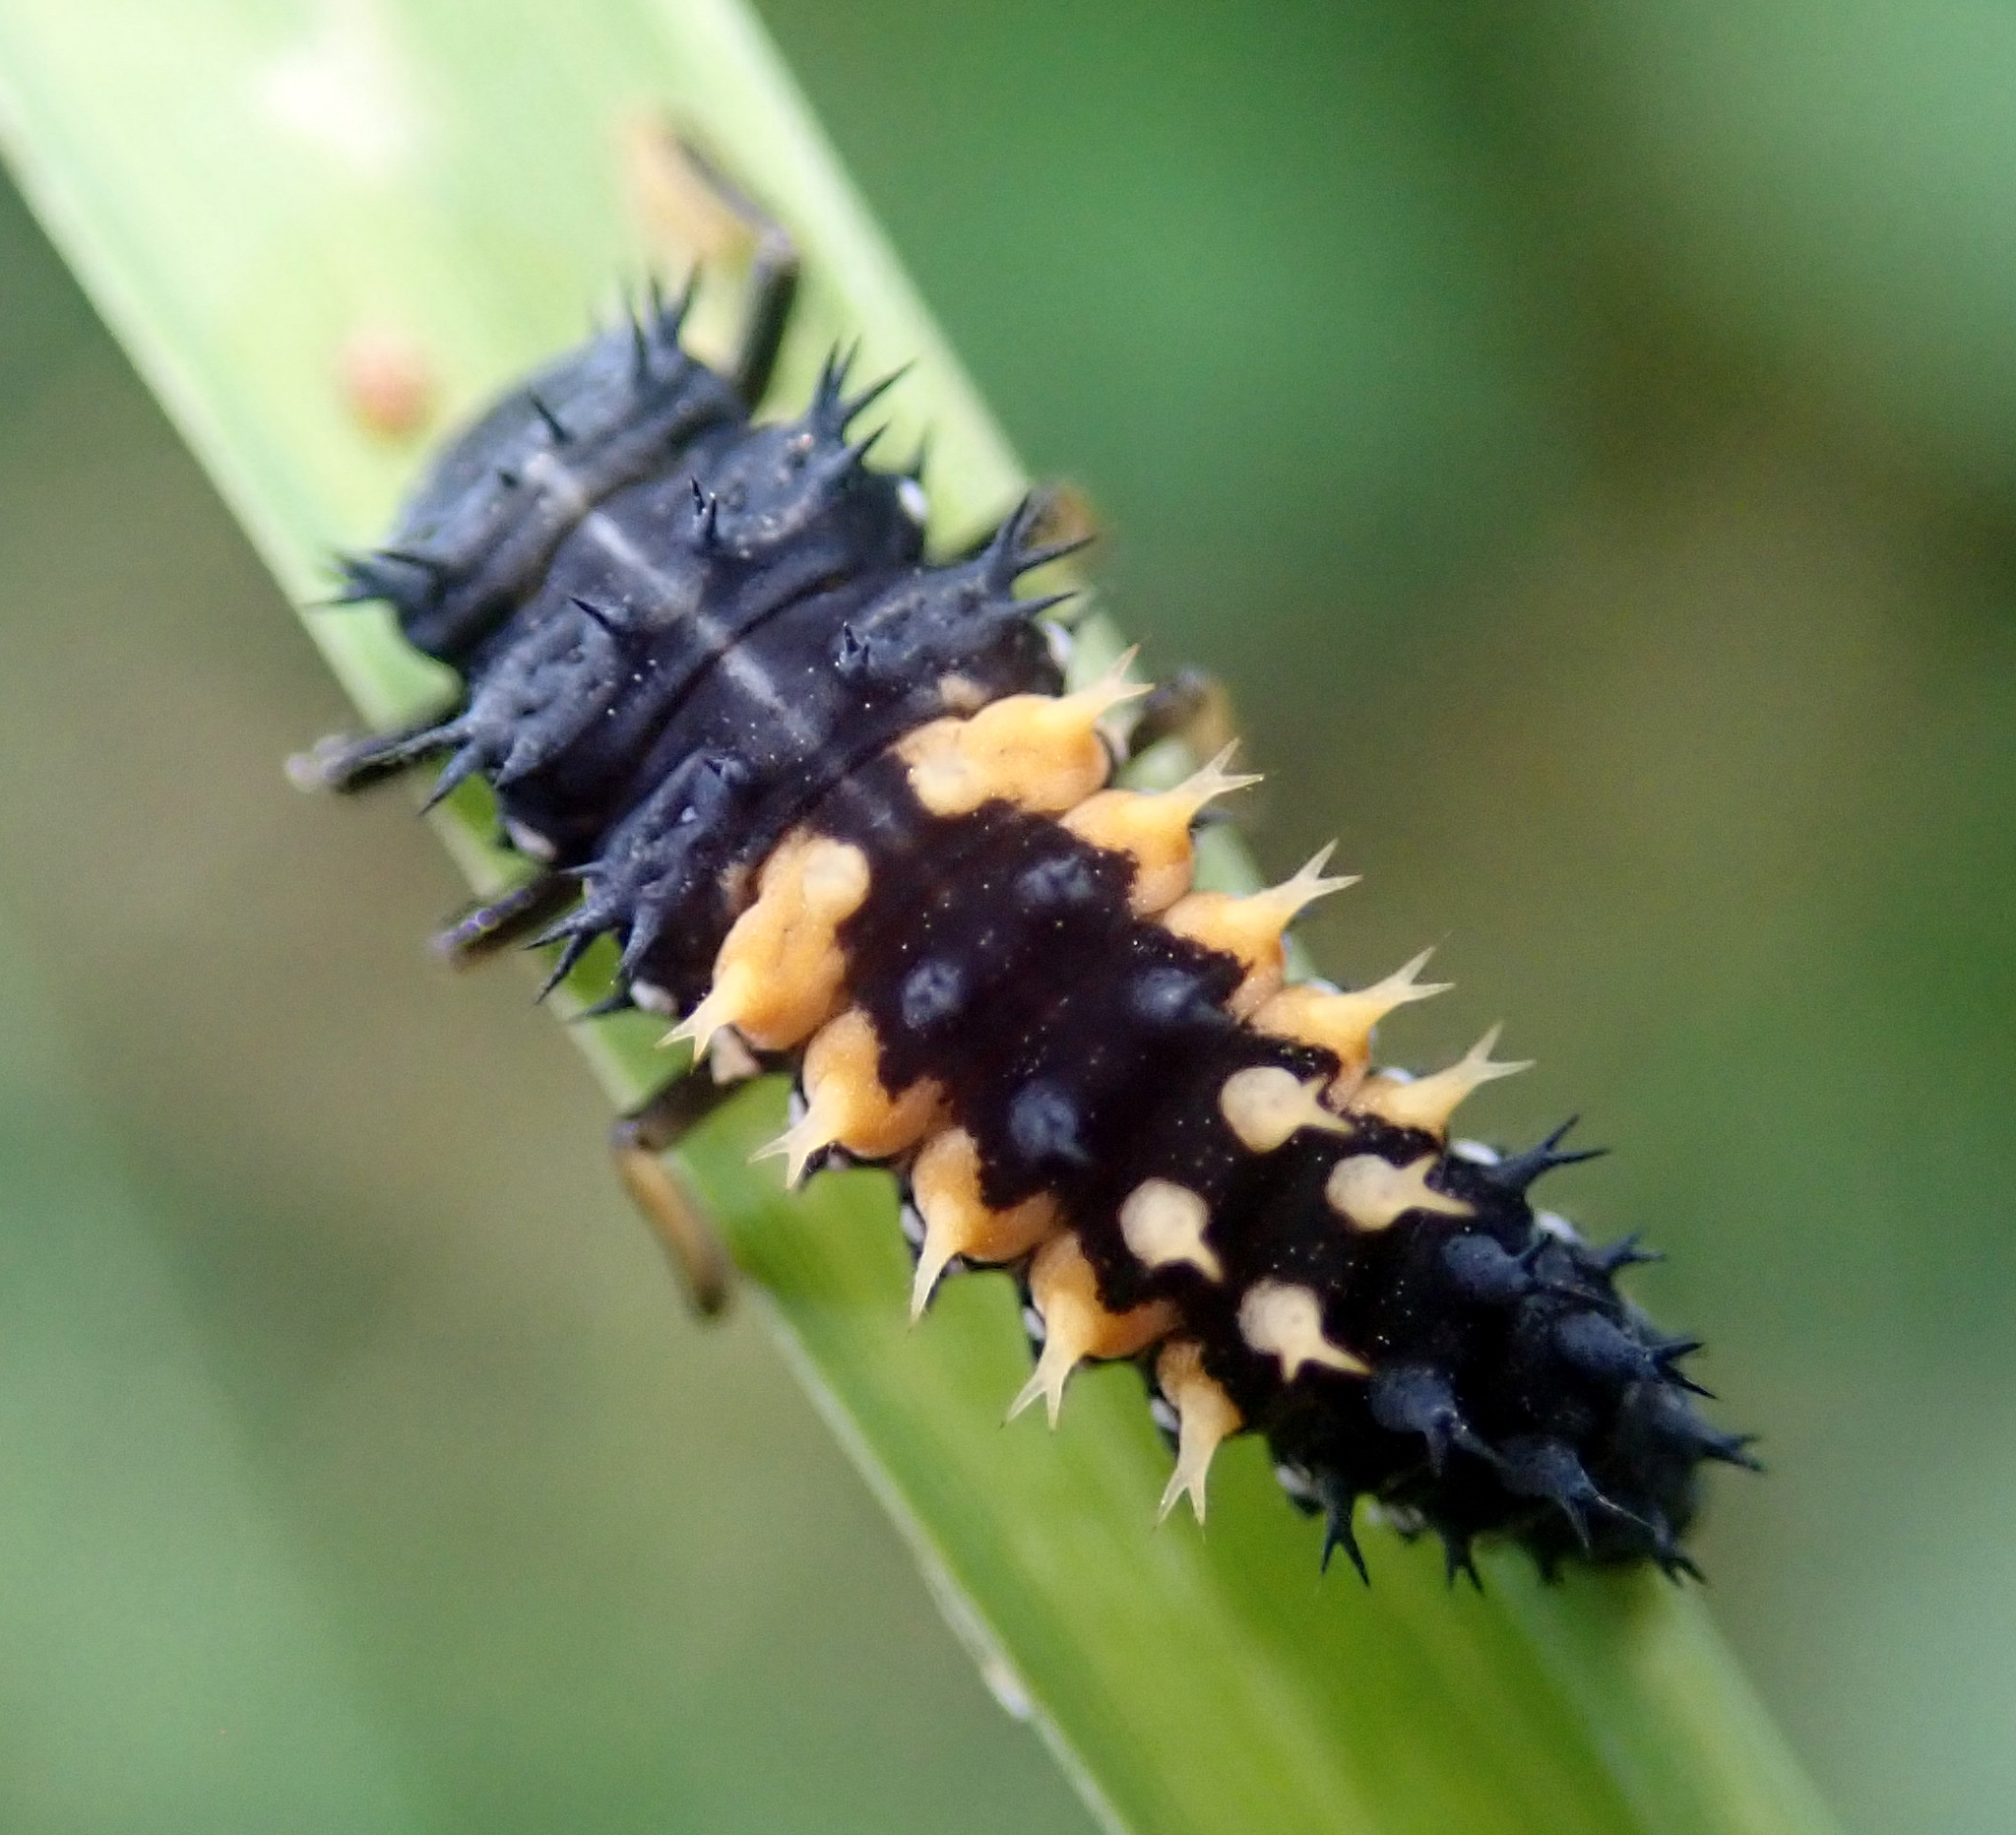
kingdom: Animalia
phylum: Arthropoda
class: Insecta
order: Coleoptera
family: Coccinellidae
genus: Harmonia
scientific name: Harmonia axyridis
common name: Harlequin ladybird
